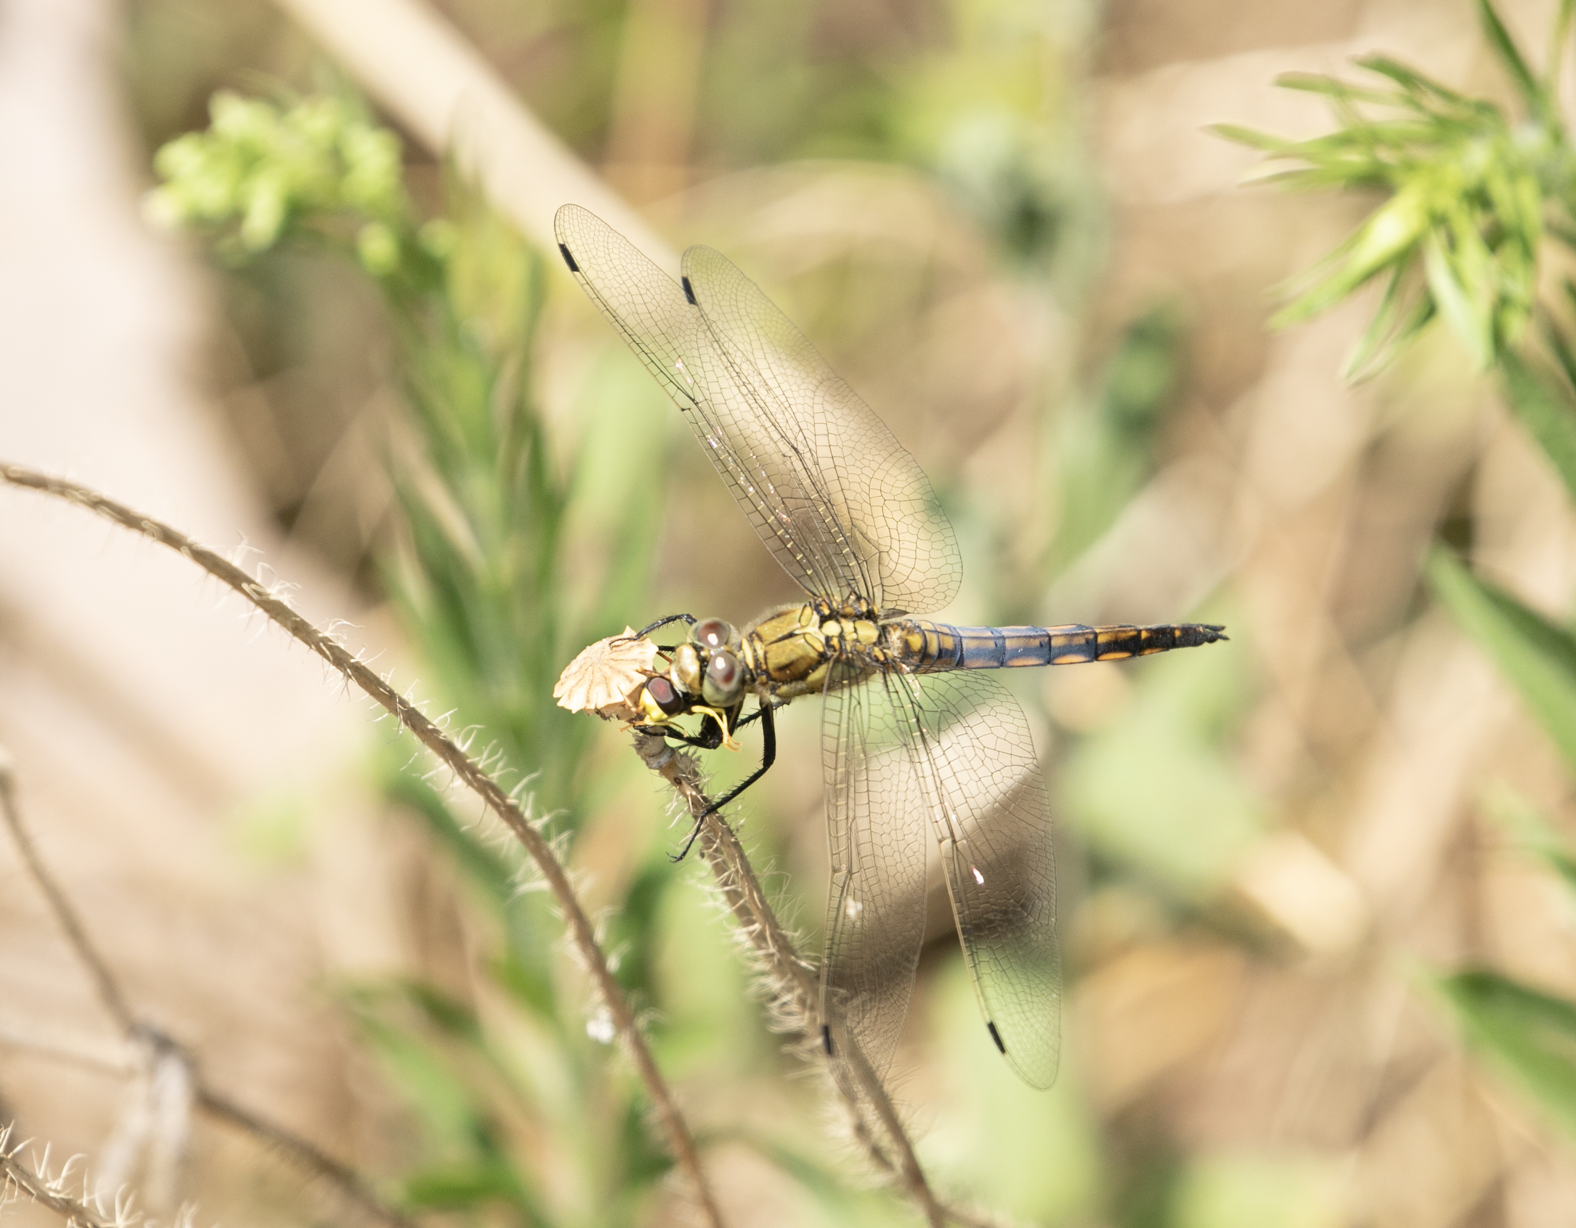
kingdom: Animalia
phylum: Arthropoda
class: Insecta
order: Odonata
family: Libellulidae
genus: Orthetrum
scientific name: Orthetrum cancellatum
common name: Black-tailed skimmer
